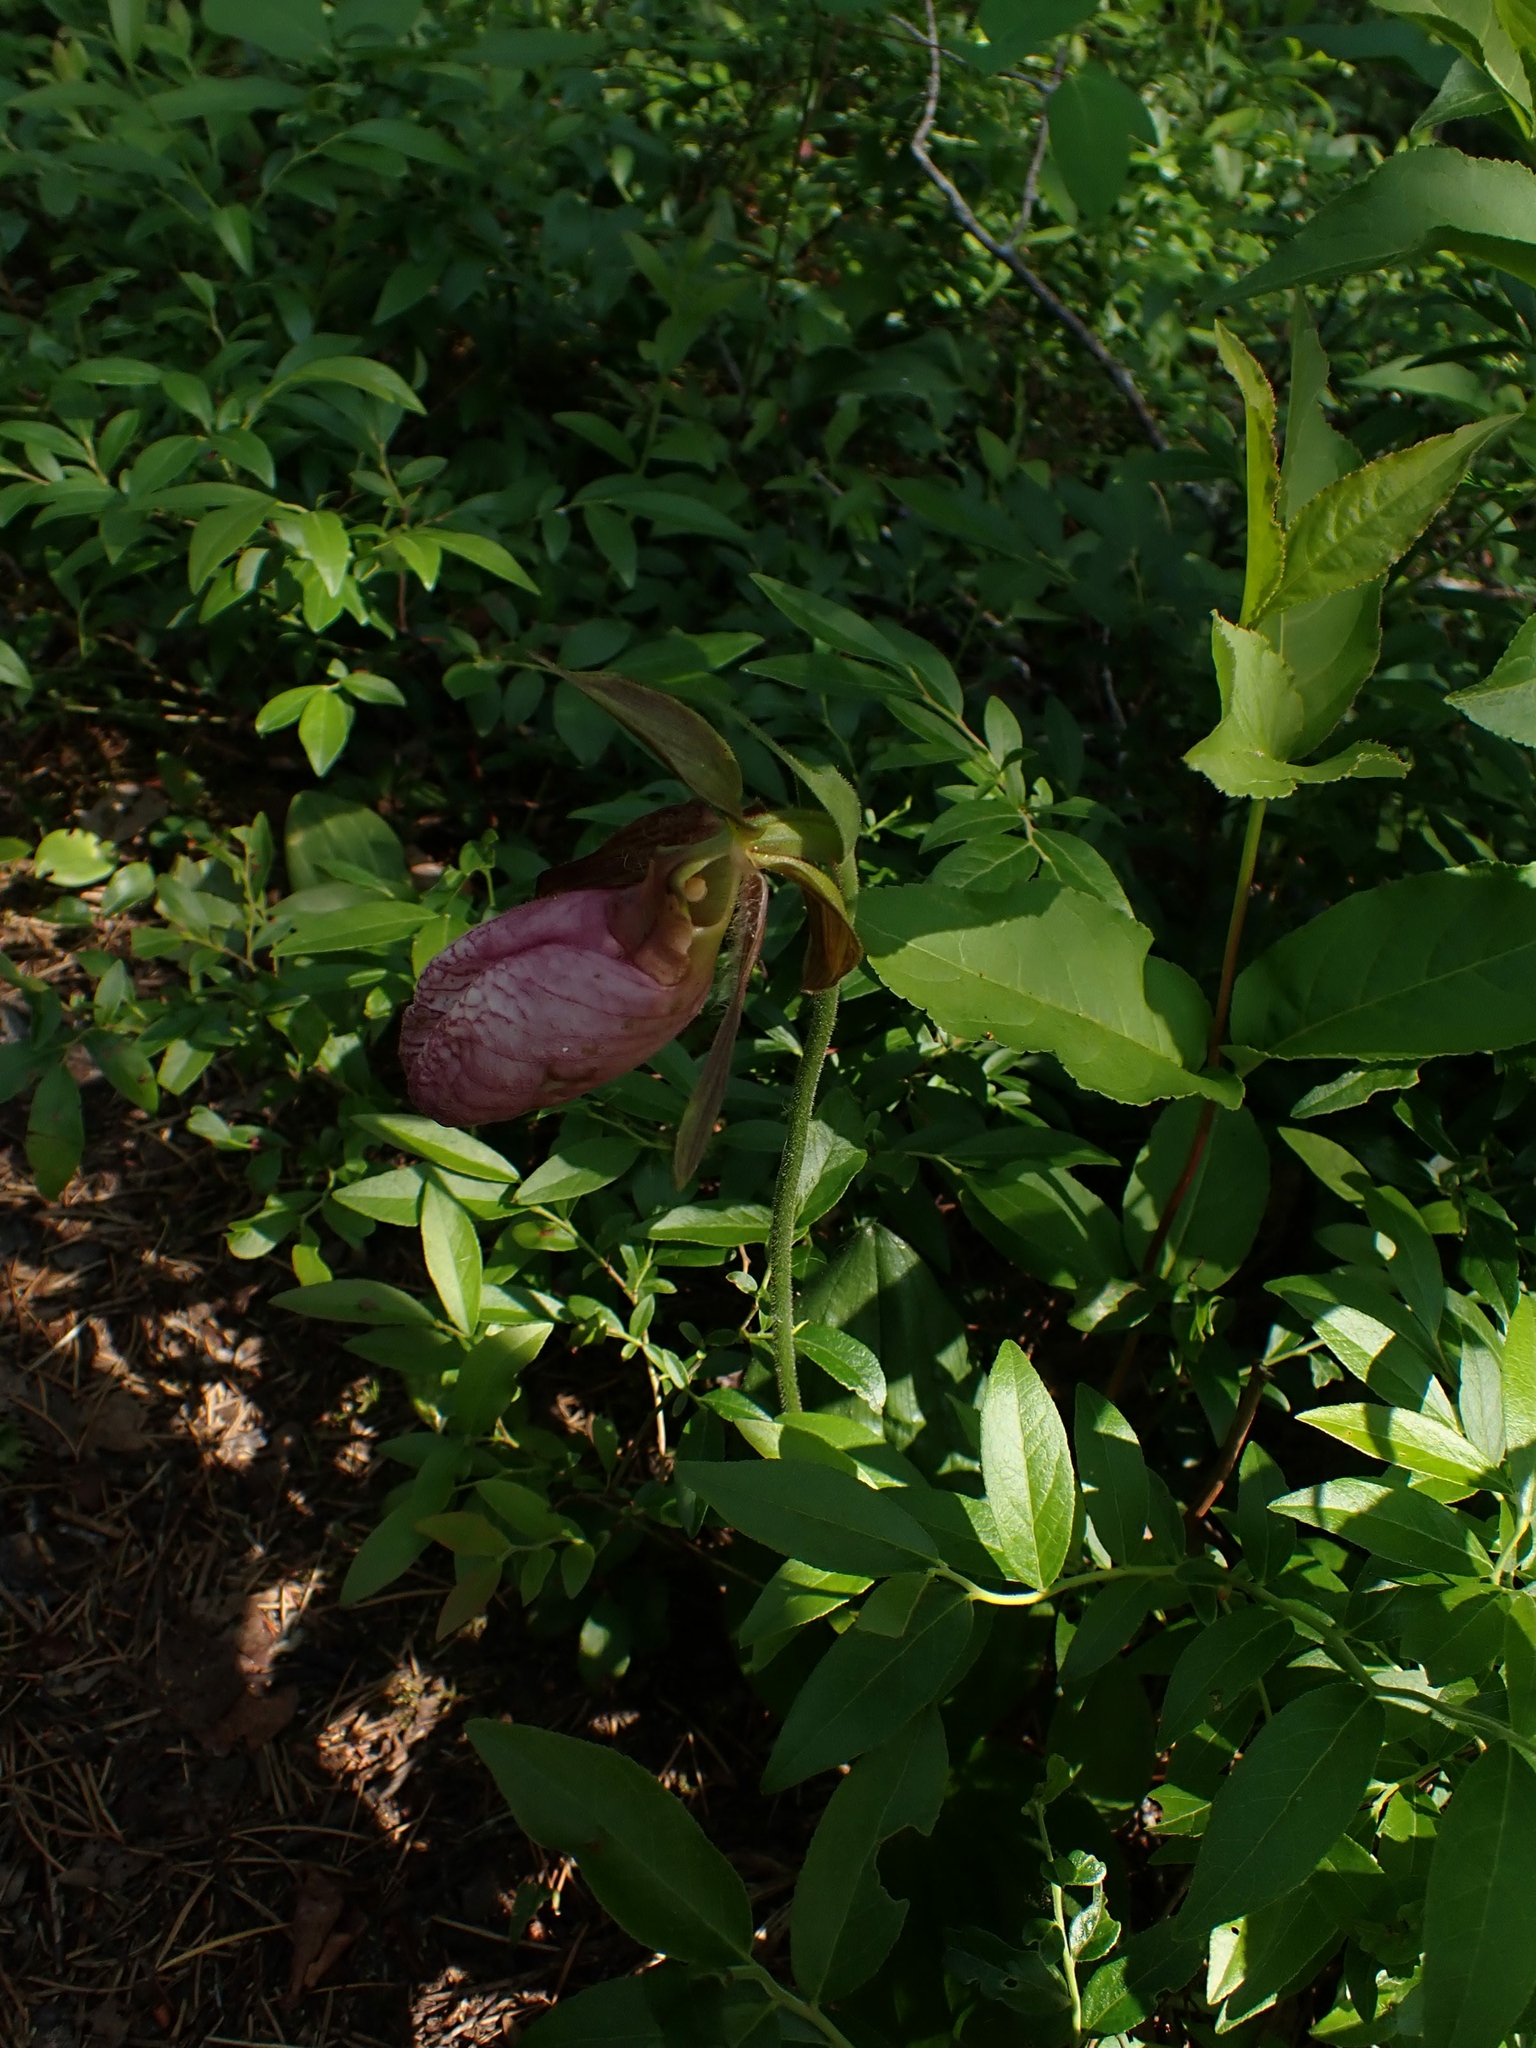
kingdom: Plantae
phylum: Tracheophyta
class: Liliopsida
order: Asparagales
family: Orchidaceae
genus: Cypripedium
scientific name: Cypripedium acaule
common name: Pink lady's-slipper
